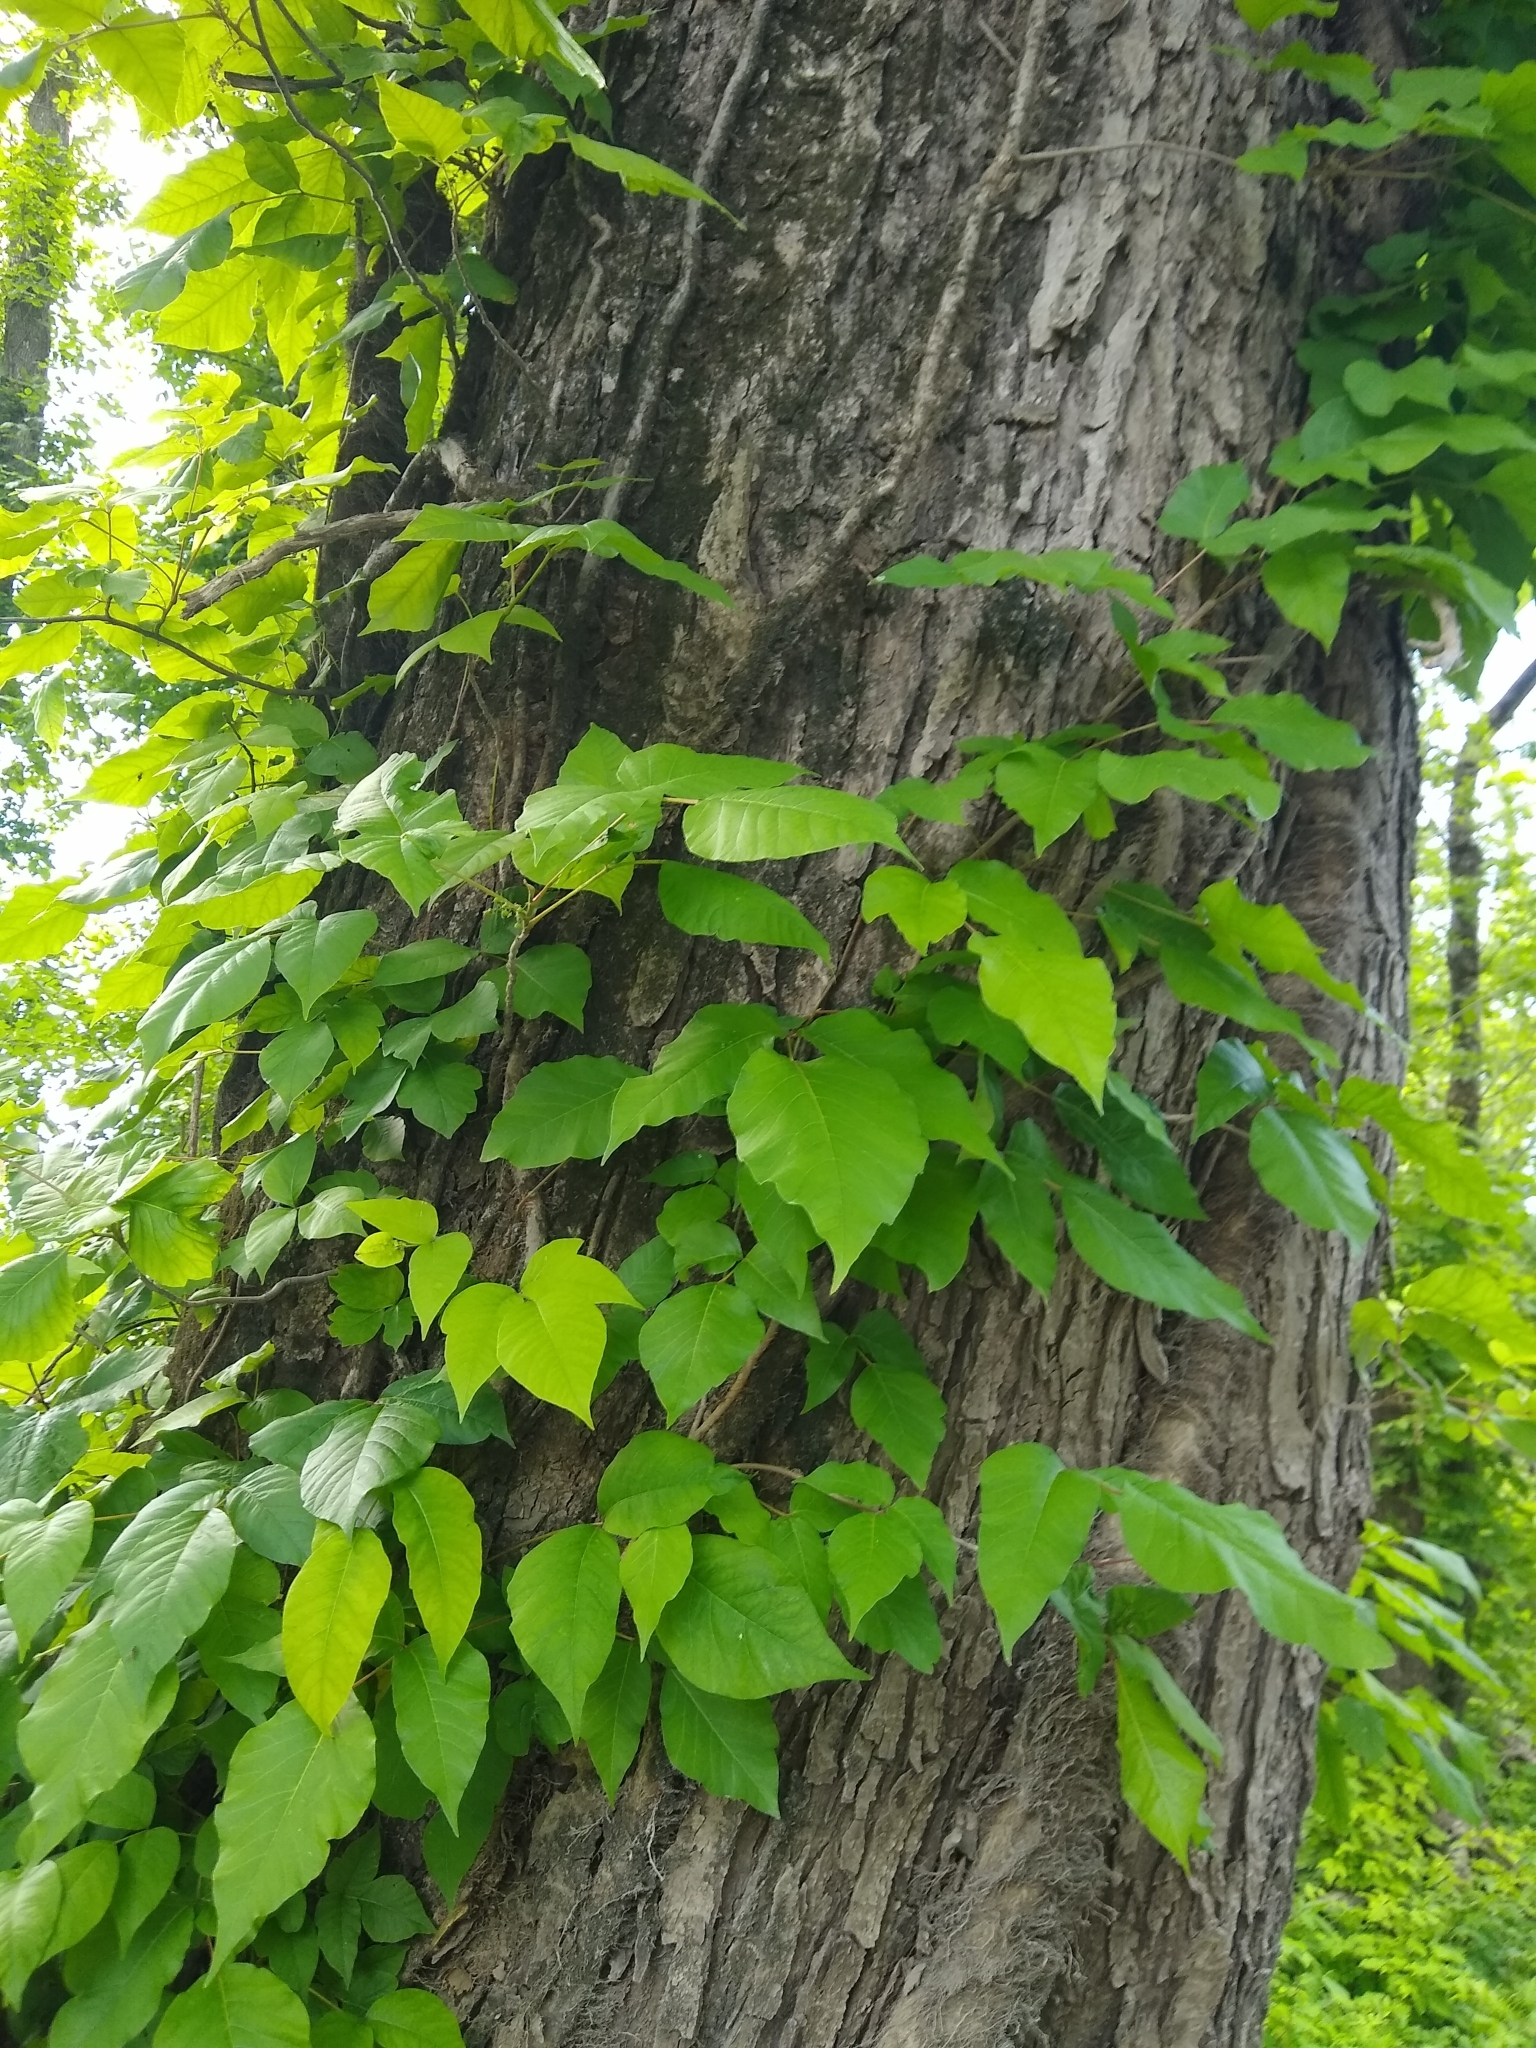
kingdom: Plantae
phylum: Tracheophyta
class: Magnoliopsida
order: Sapindales
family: Anacardiaceae
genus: Toxicodendron
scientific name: Toxicodendron radicans
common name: Poison ivy
